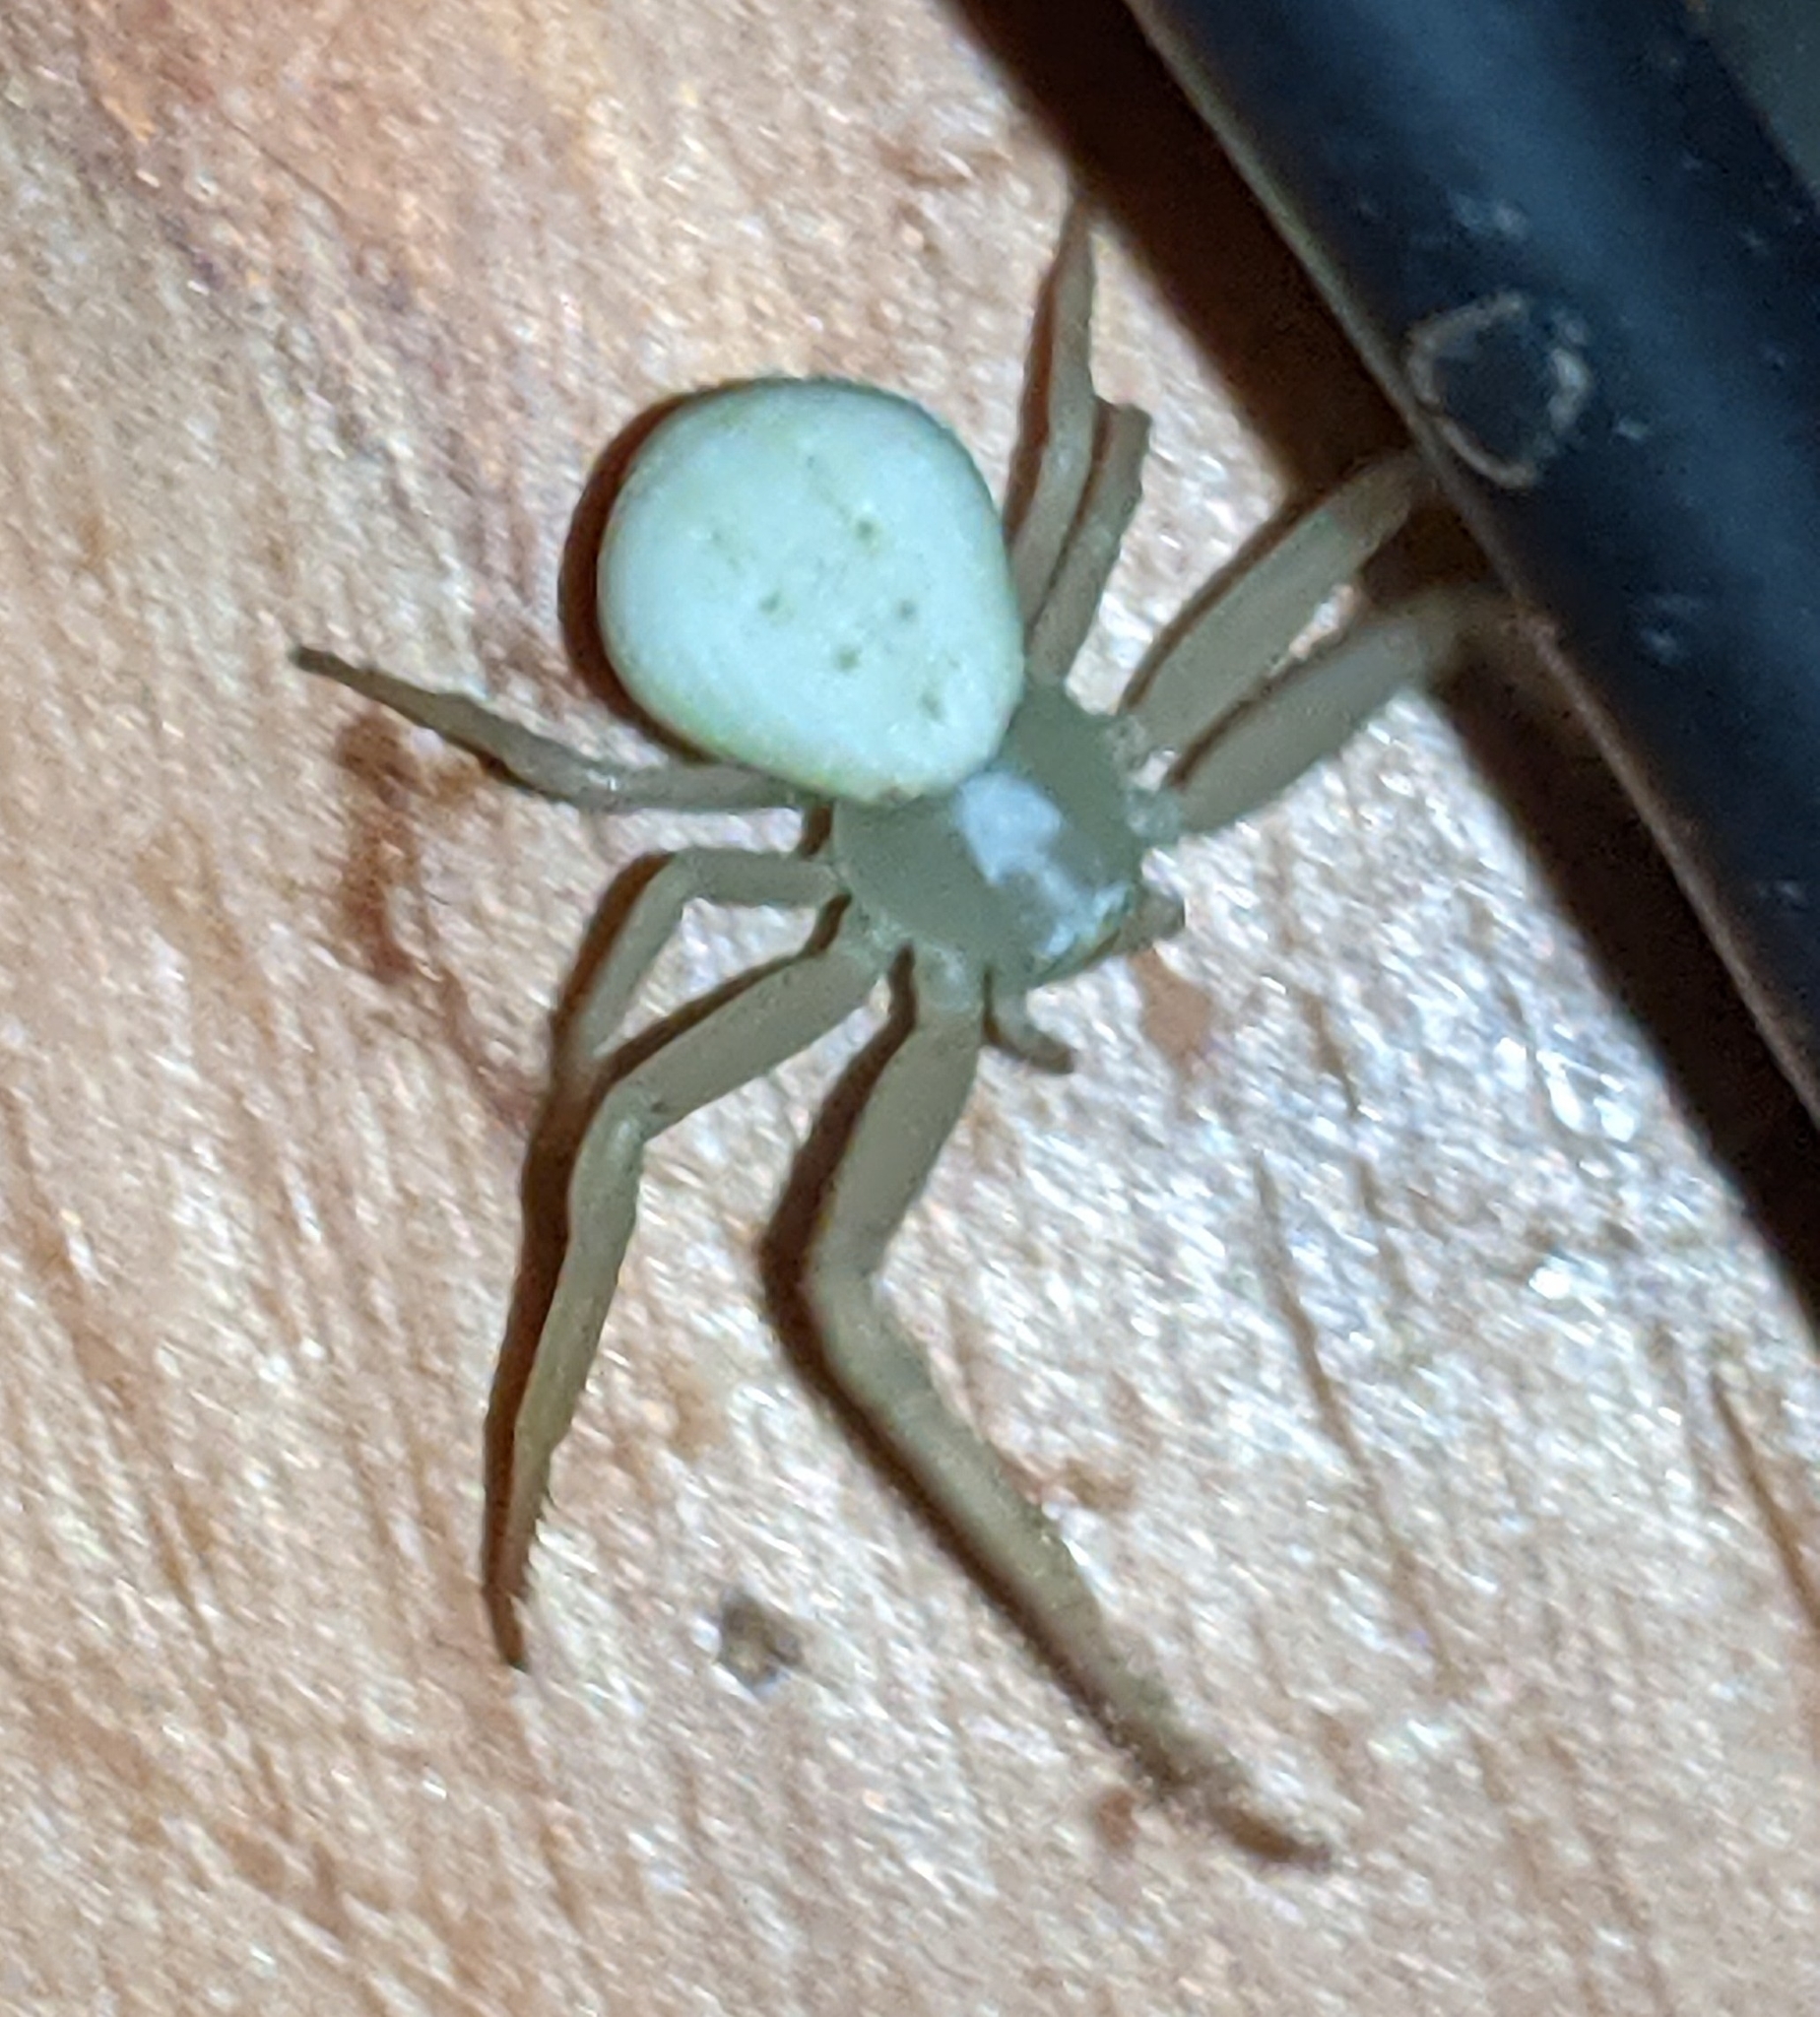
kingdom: Animalia
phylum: Arthropoda
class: Arachnida
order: Araneae
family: Thomisidae
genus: Misumena
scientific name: Misumena vatia
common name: Goldenrod crab spider
